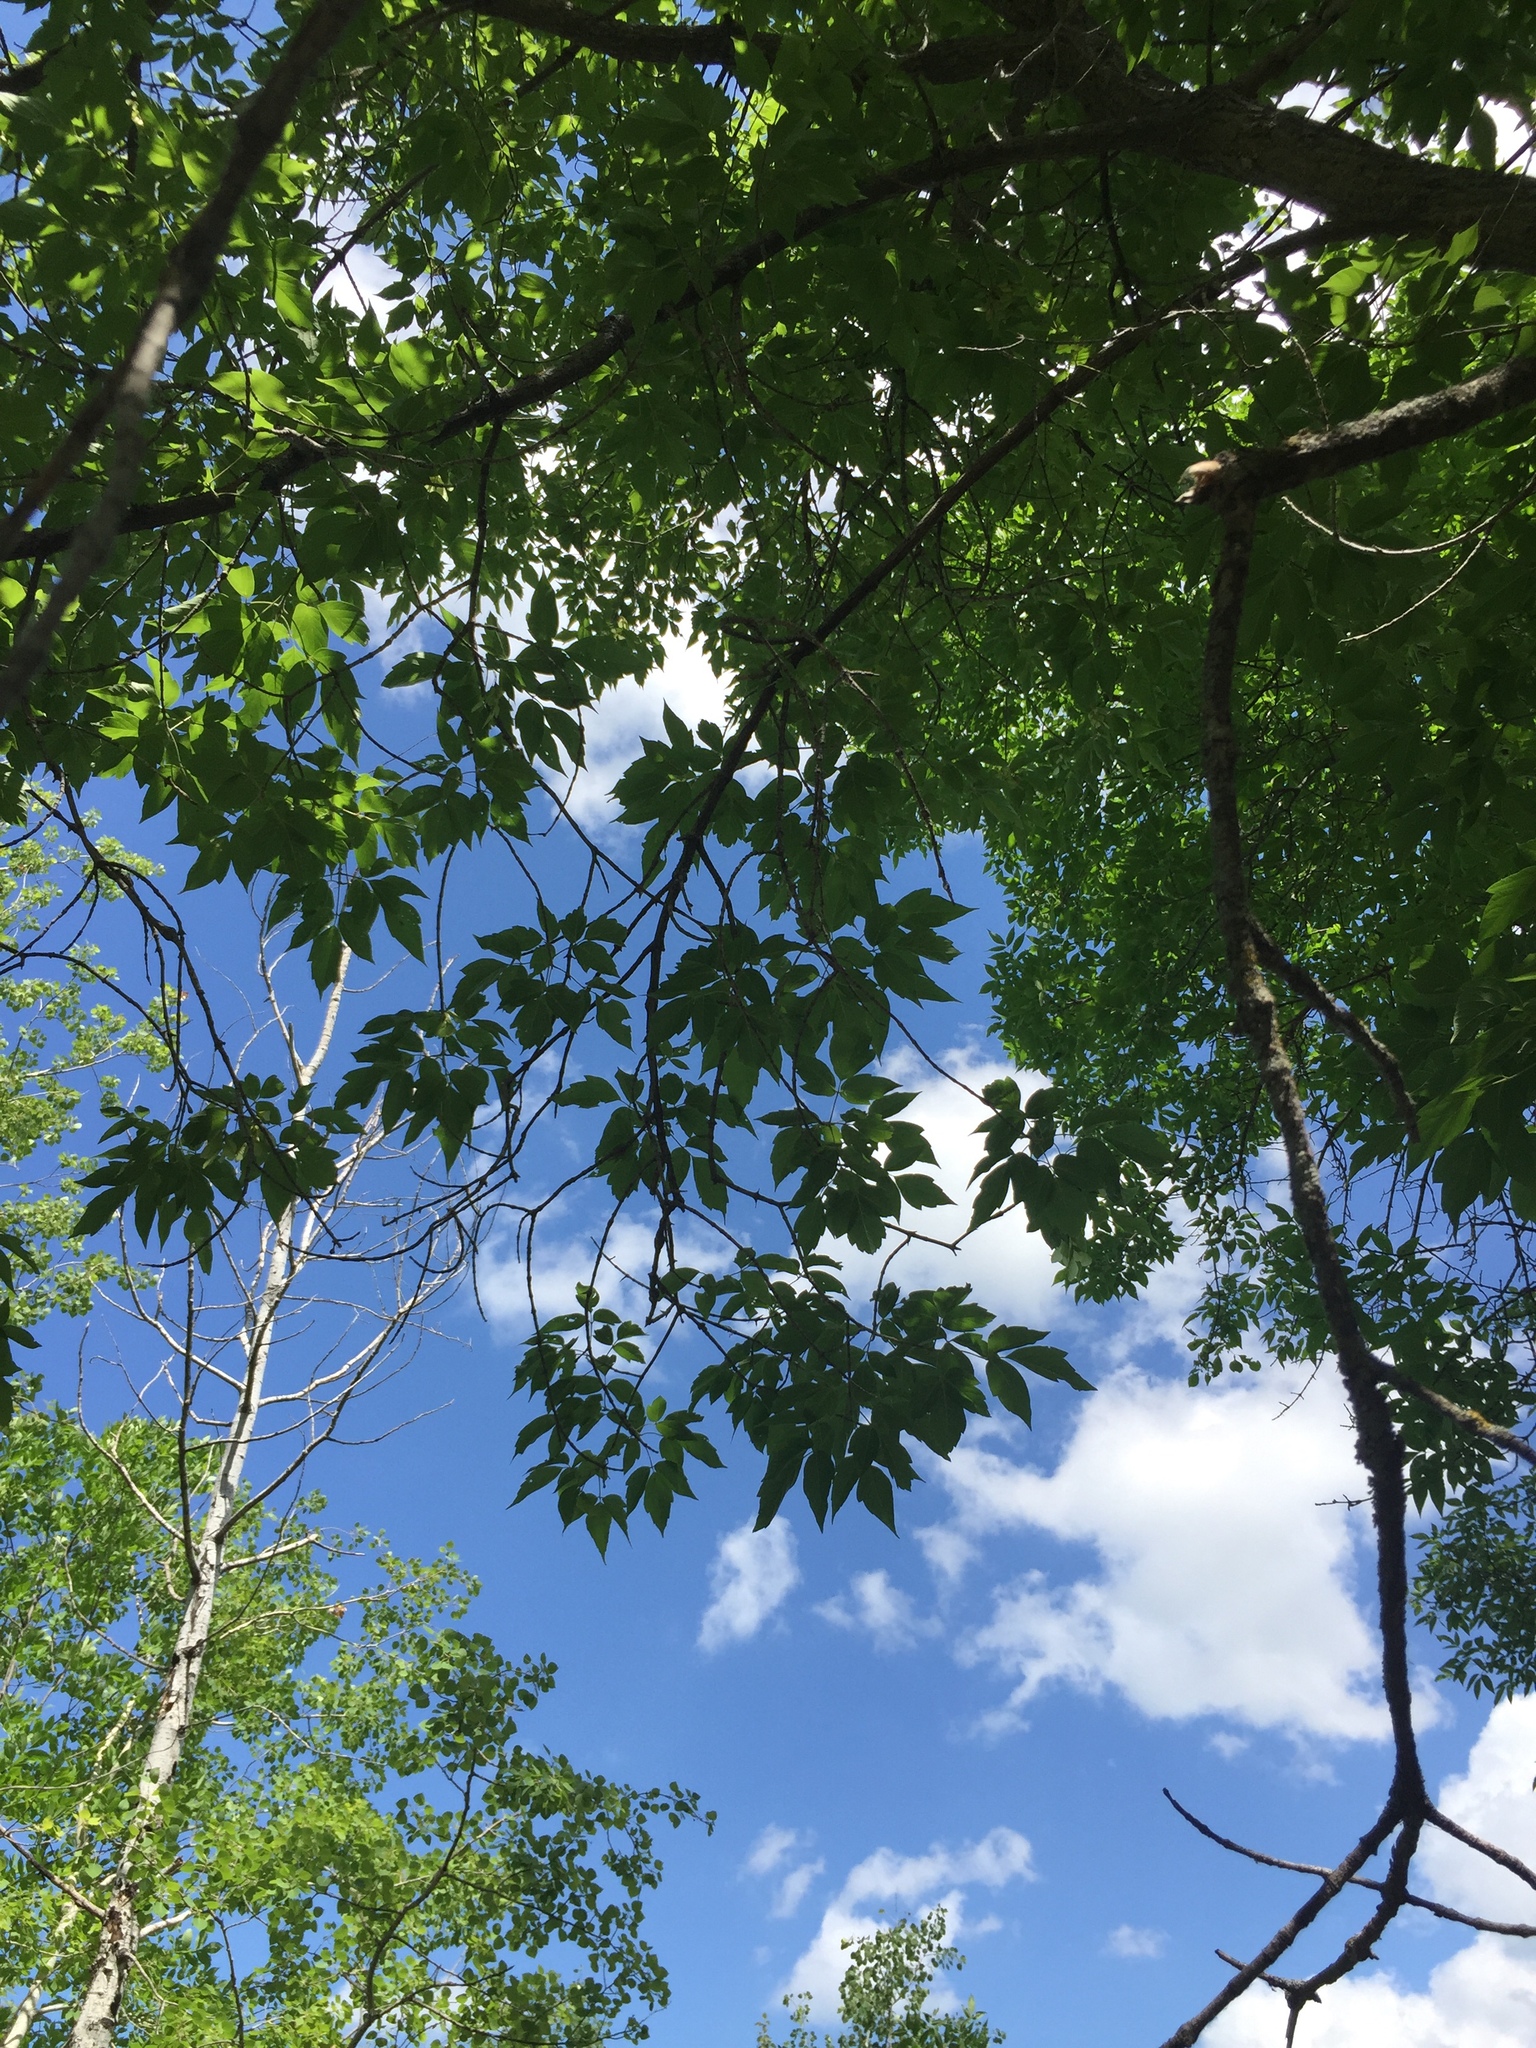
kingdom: Plantae
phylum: Tracheophyta
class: Magnoliopsida
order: Sapindales
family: Sapindaceae
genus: Acer
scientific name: Acer negundo
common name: Ashleaf maple
